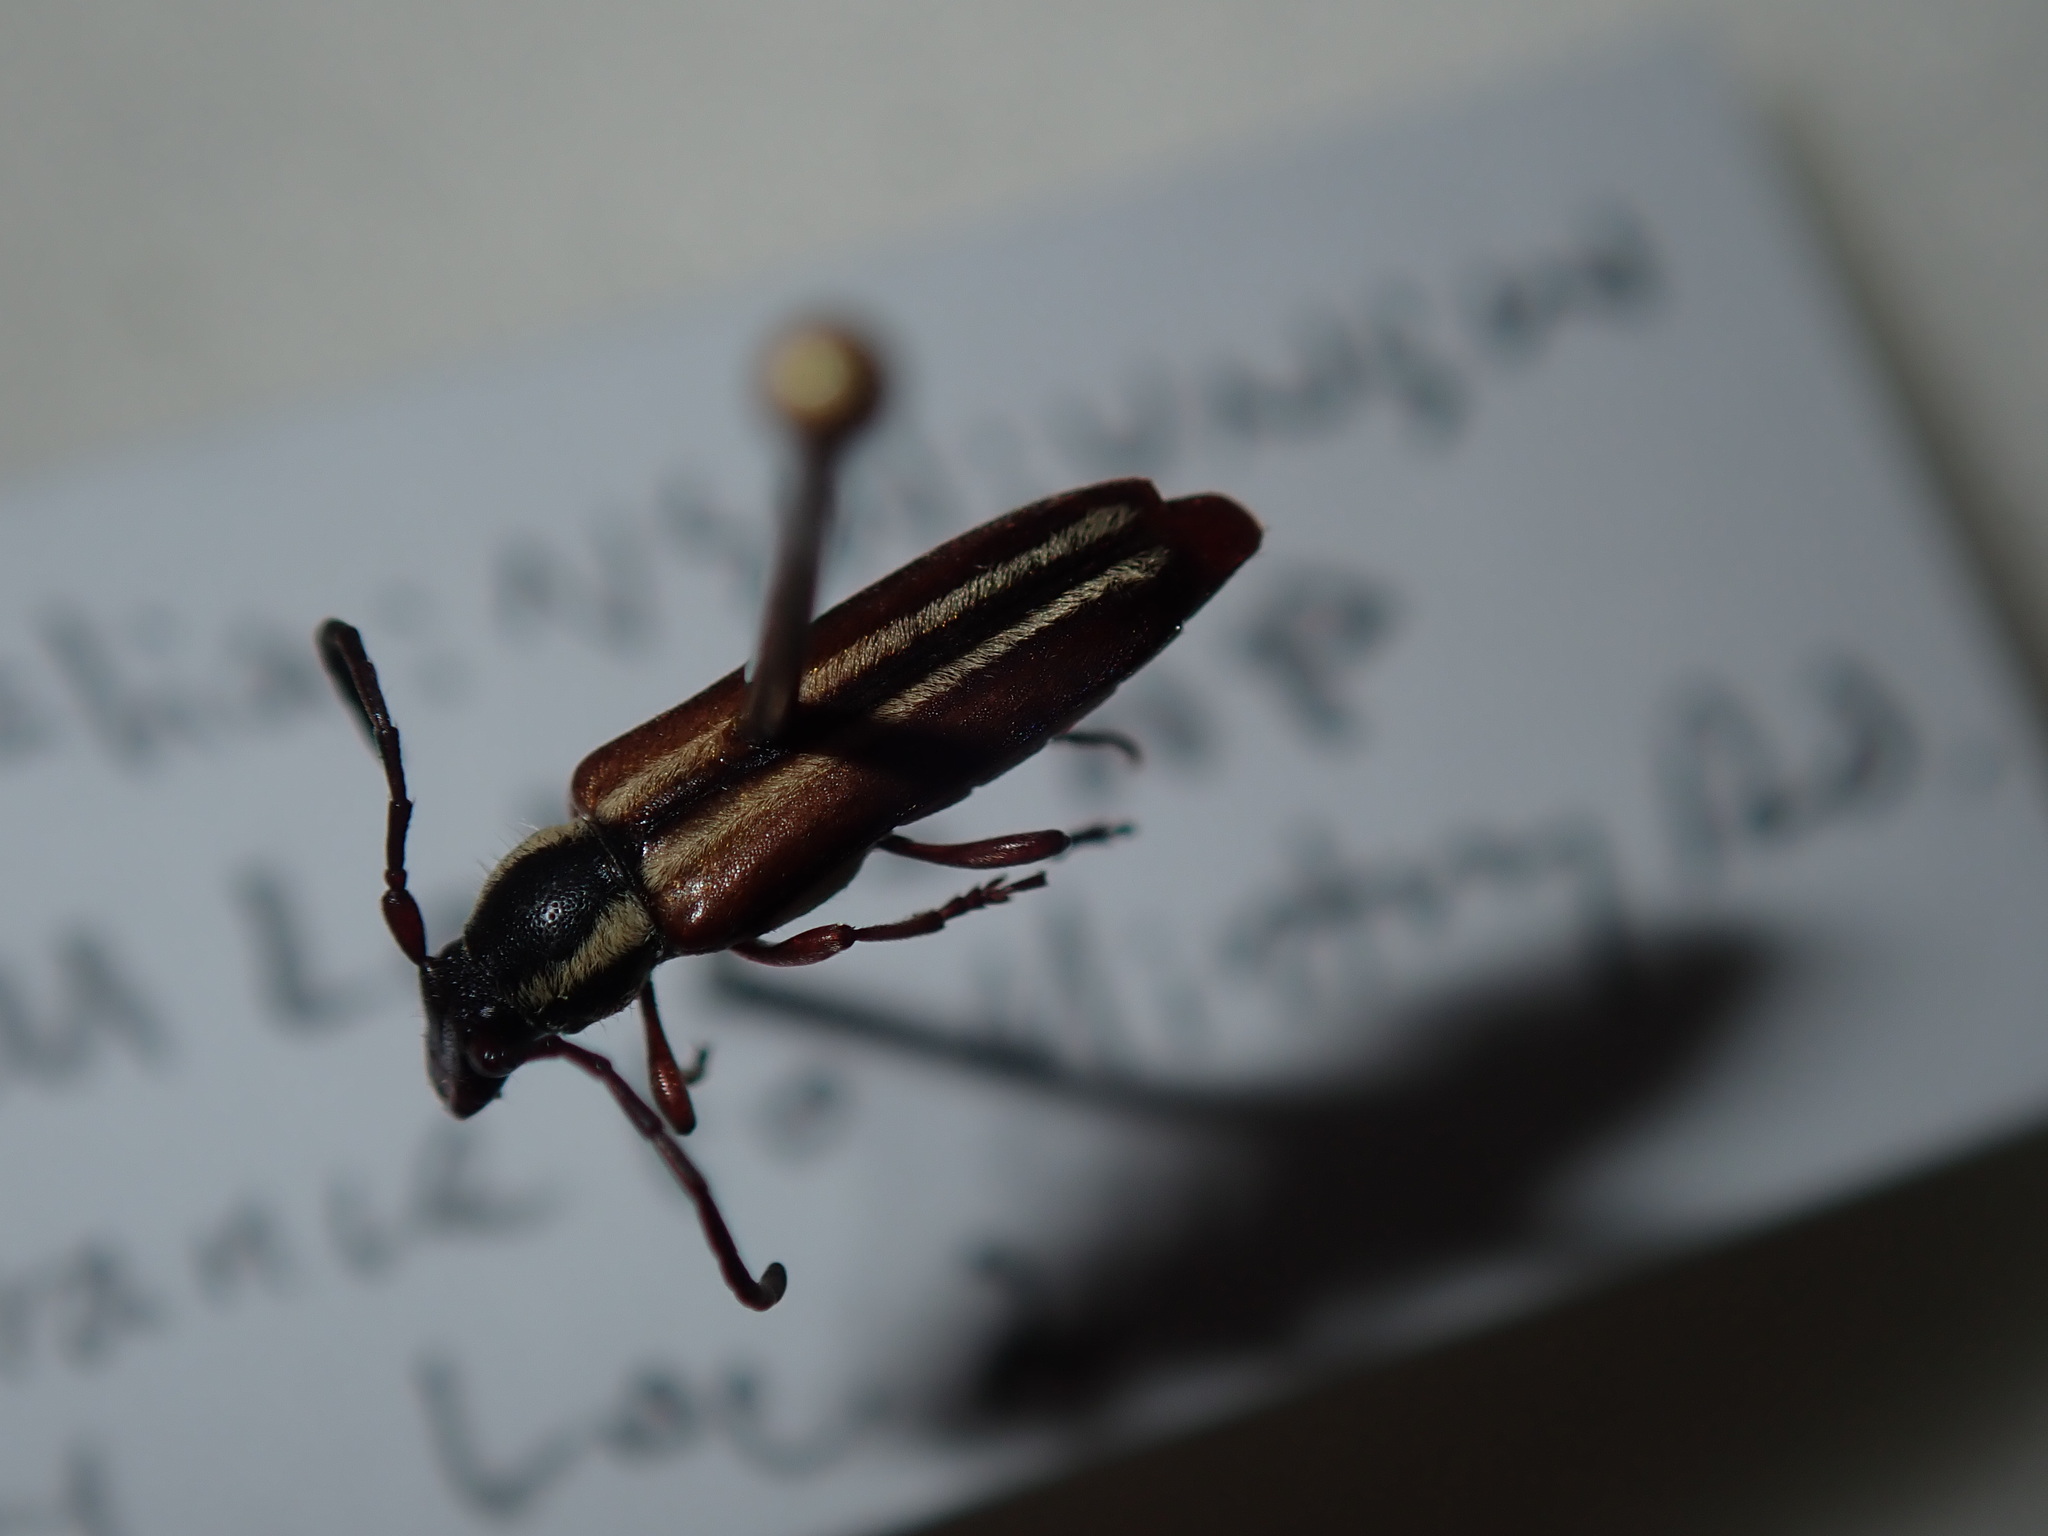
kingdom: Animalia
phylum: Arthropoda
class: Insecta
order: Coleoptera
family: Cerambycidae
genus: Trichomesia
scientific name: Trichomesia newmani
